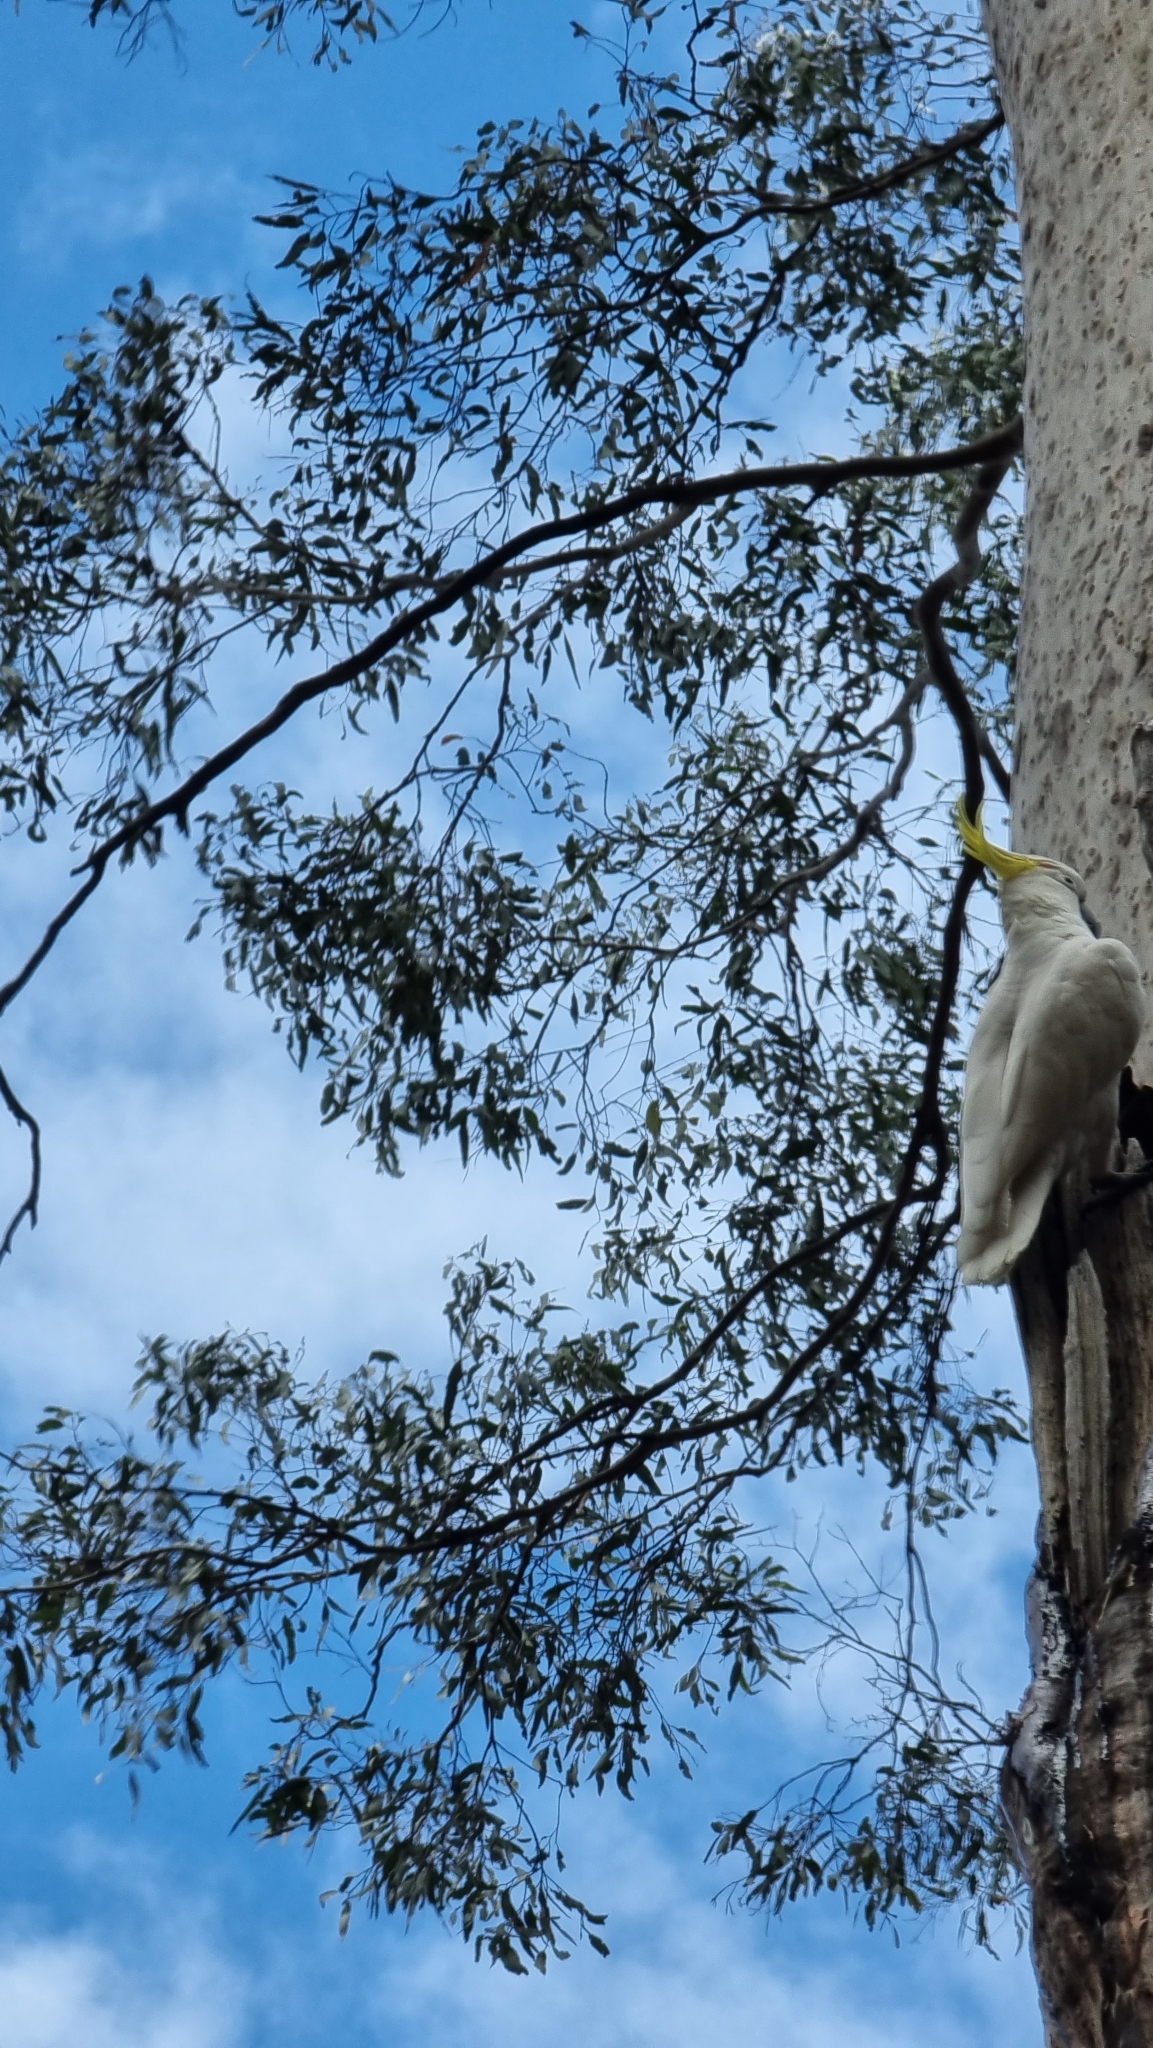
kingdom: Animalia
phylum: Chordata
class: Aves
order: Psittaciformes
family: Psittacidae
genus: Cacatua
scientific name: Cacatua galerita
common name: Sulphur-crested cockatoo
